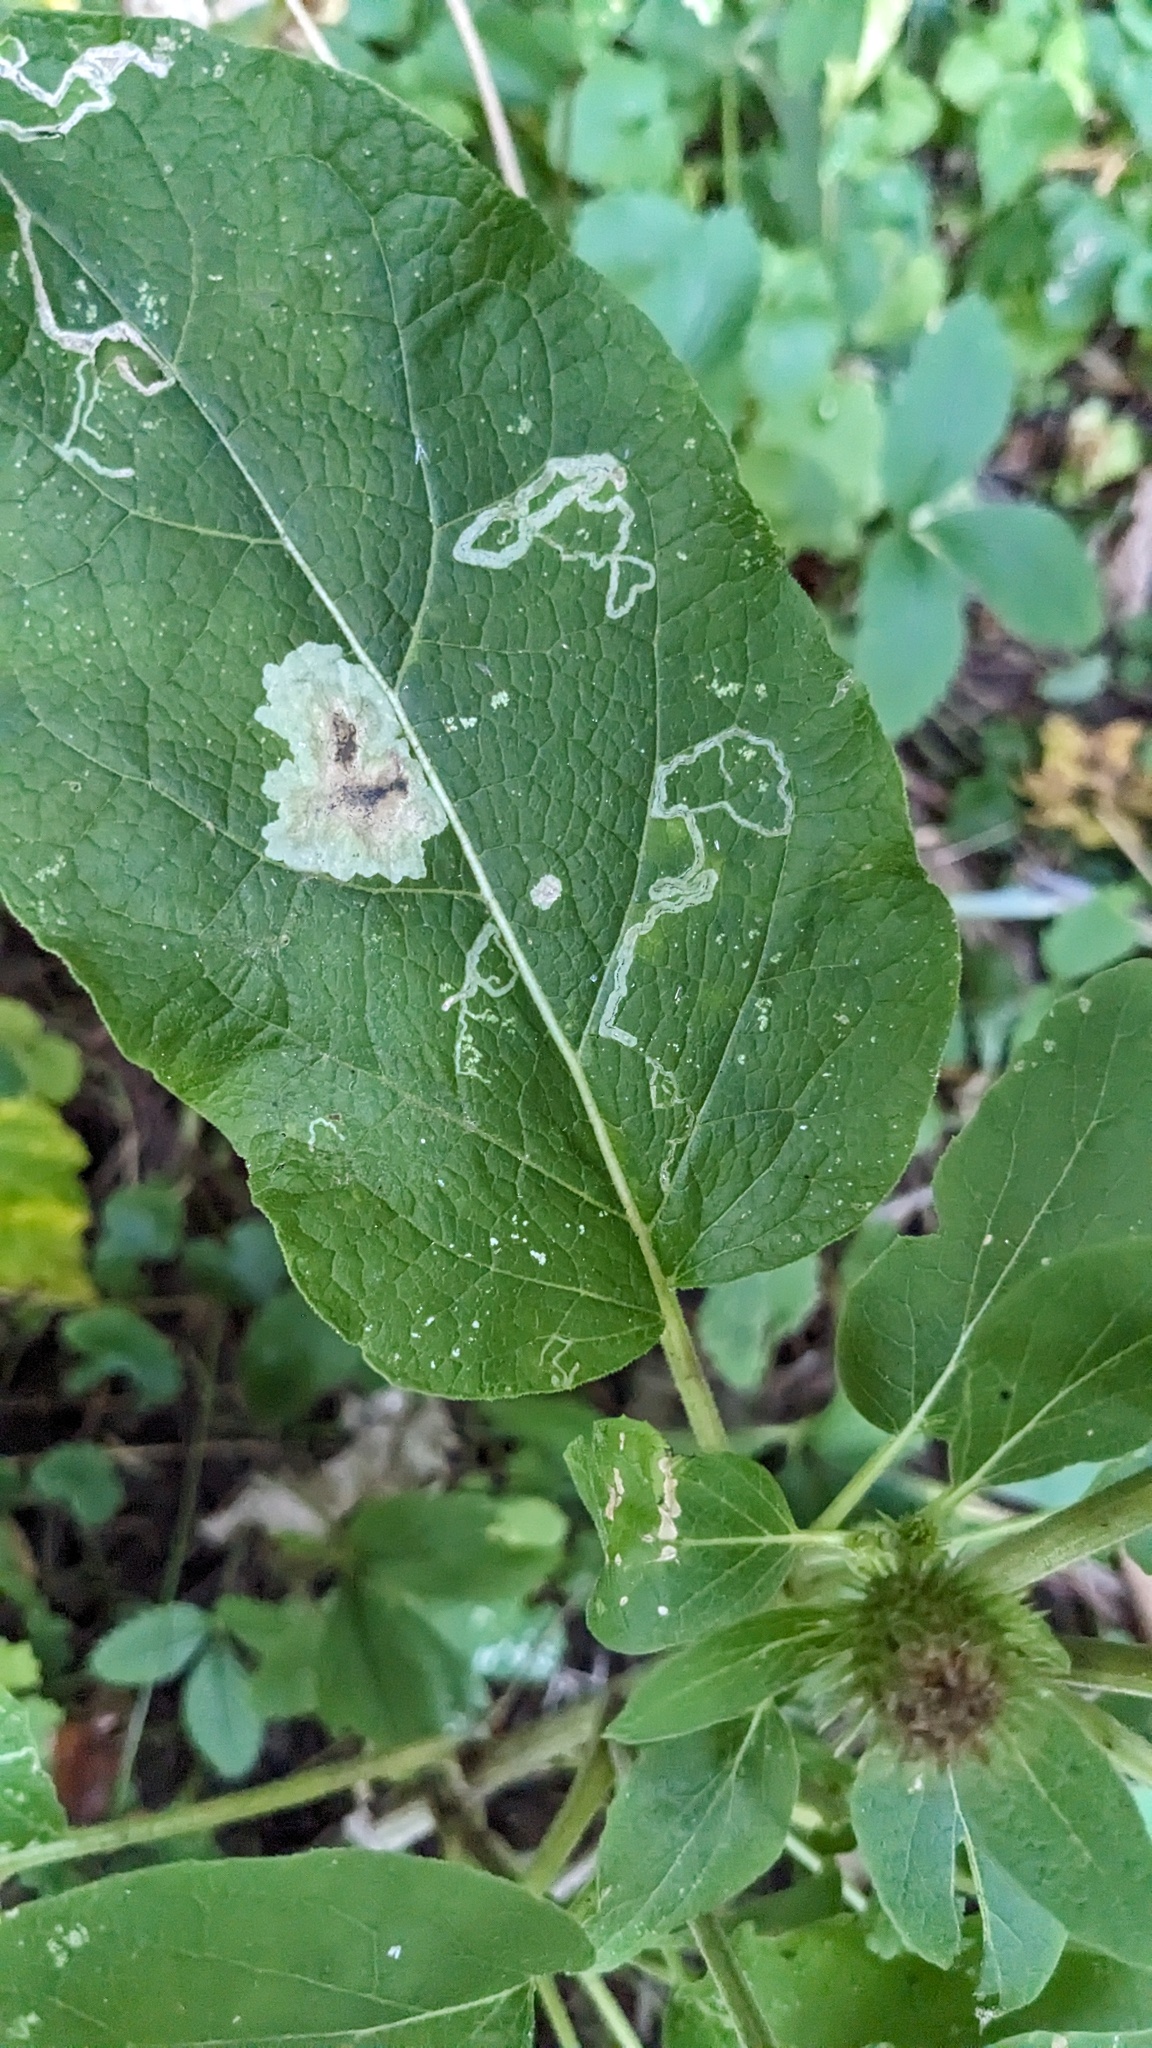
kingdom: Animalia
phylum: Arthropoda
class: Insecta
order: Diptera
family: Agromyzidae
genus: Liriomyza
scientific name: Liriomyza arctii
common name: Burdock leafminer
